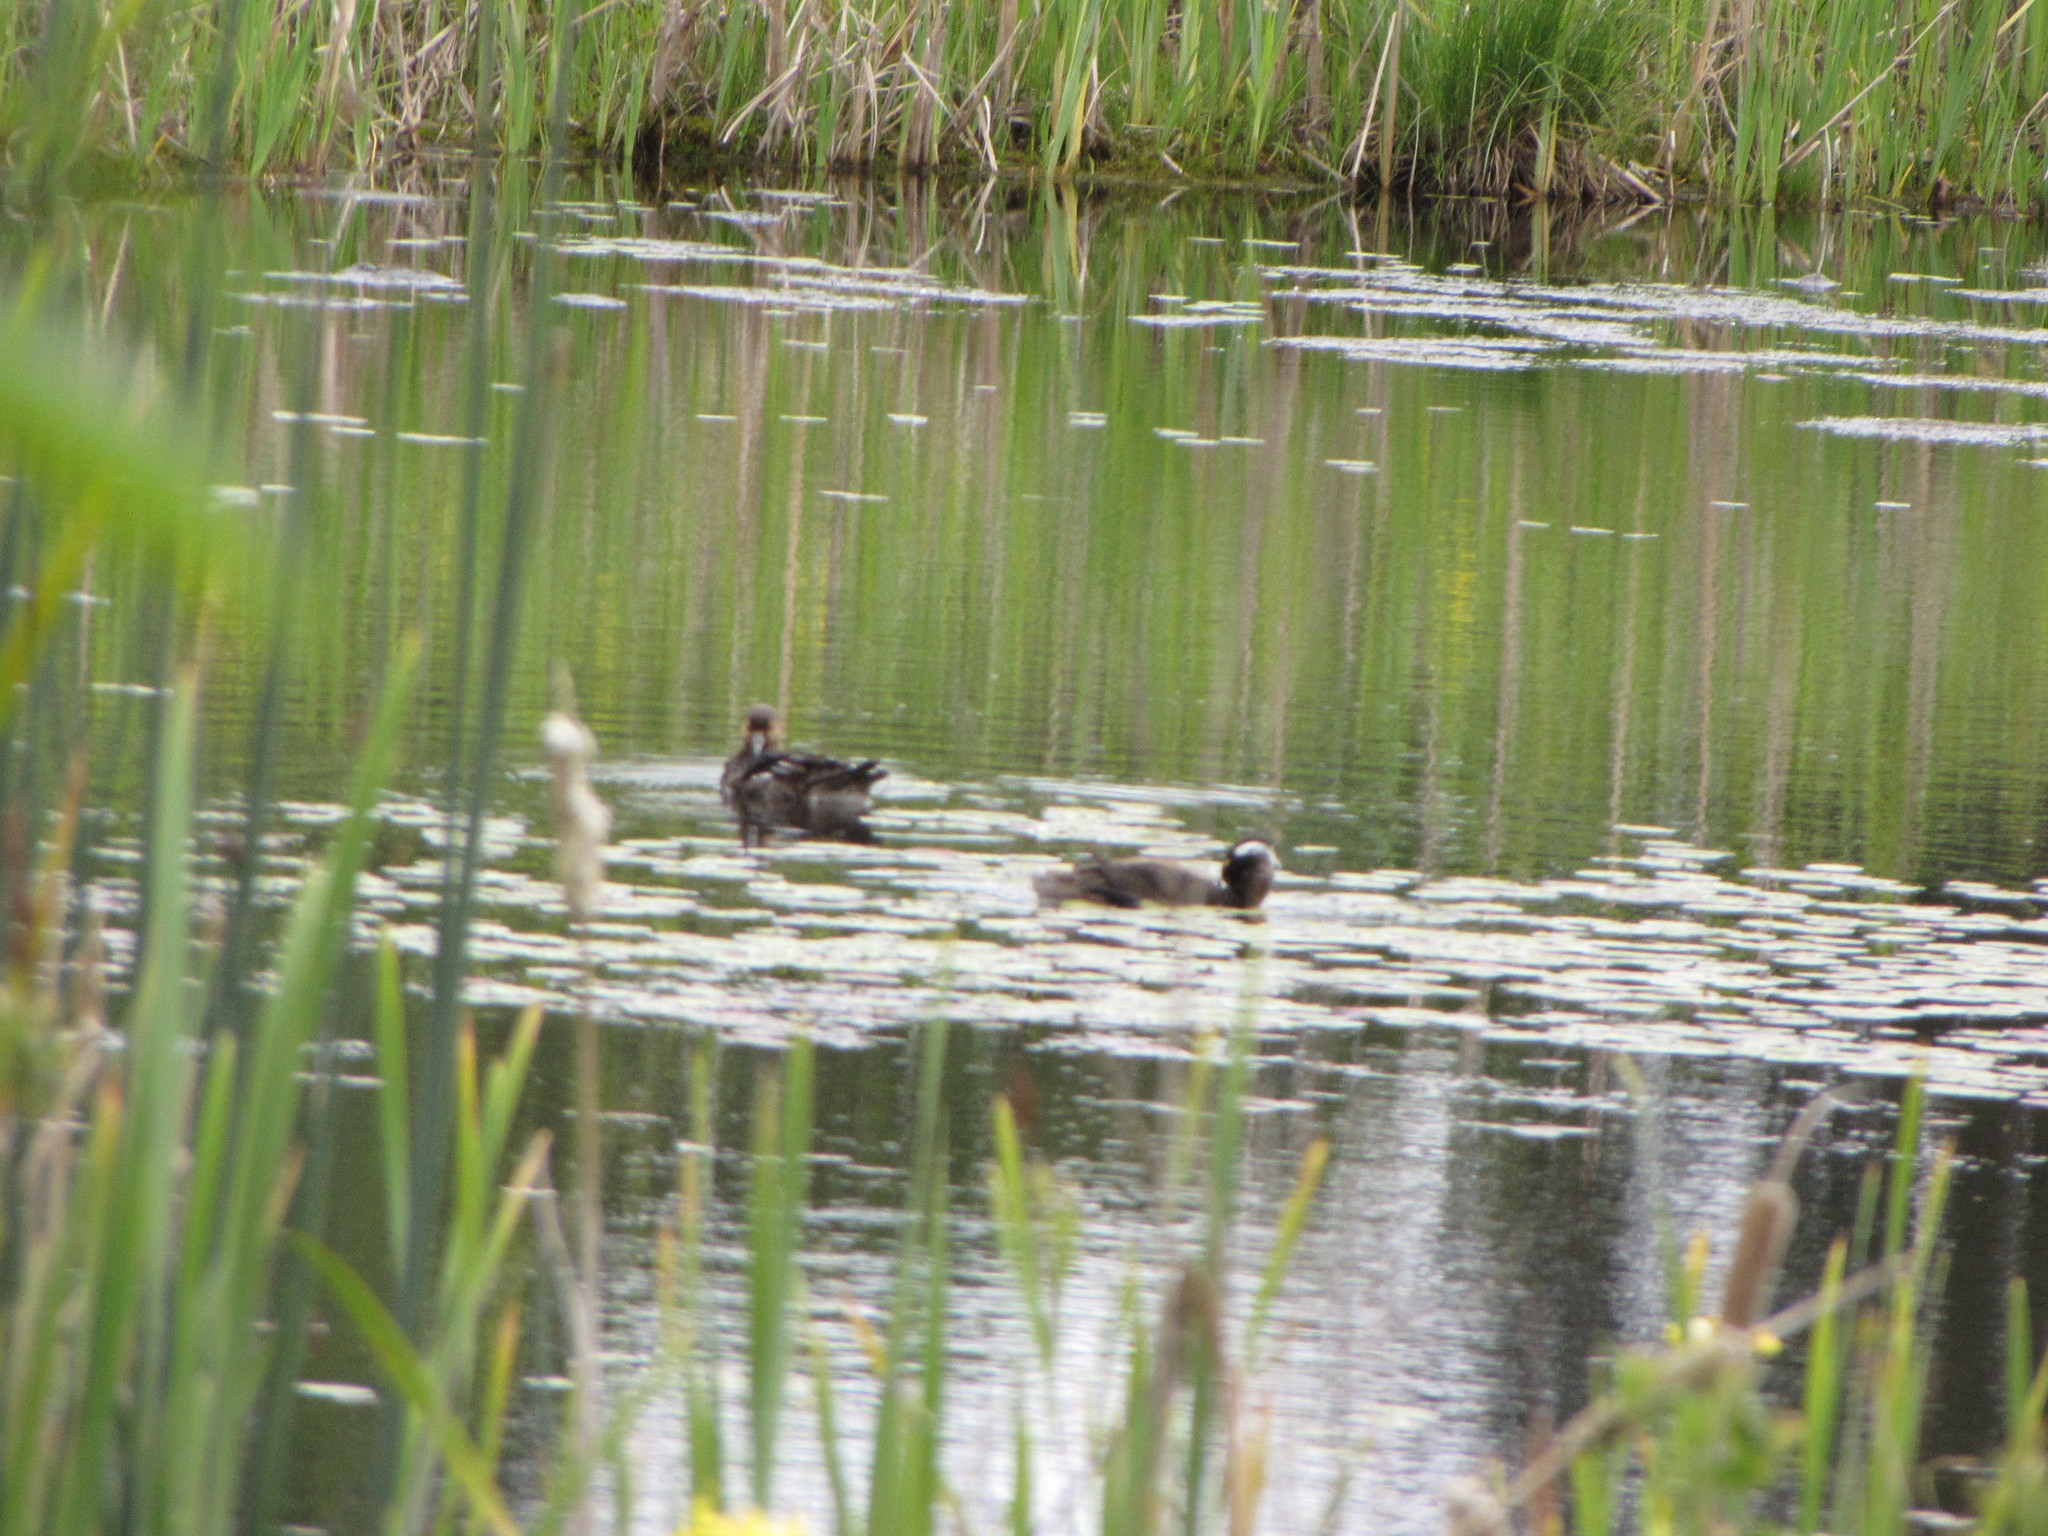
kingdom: Animalia
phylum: Chordata
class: Aves
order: Anseriformes
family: Anatidae
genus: Lophodytes
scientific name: Lophodytes cucullatus
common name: Hooded merganser
